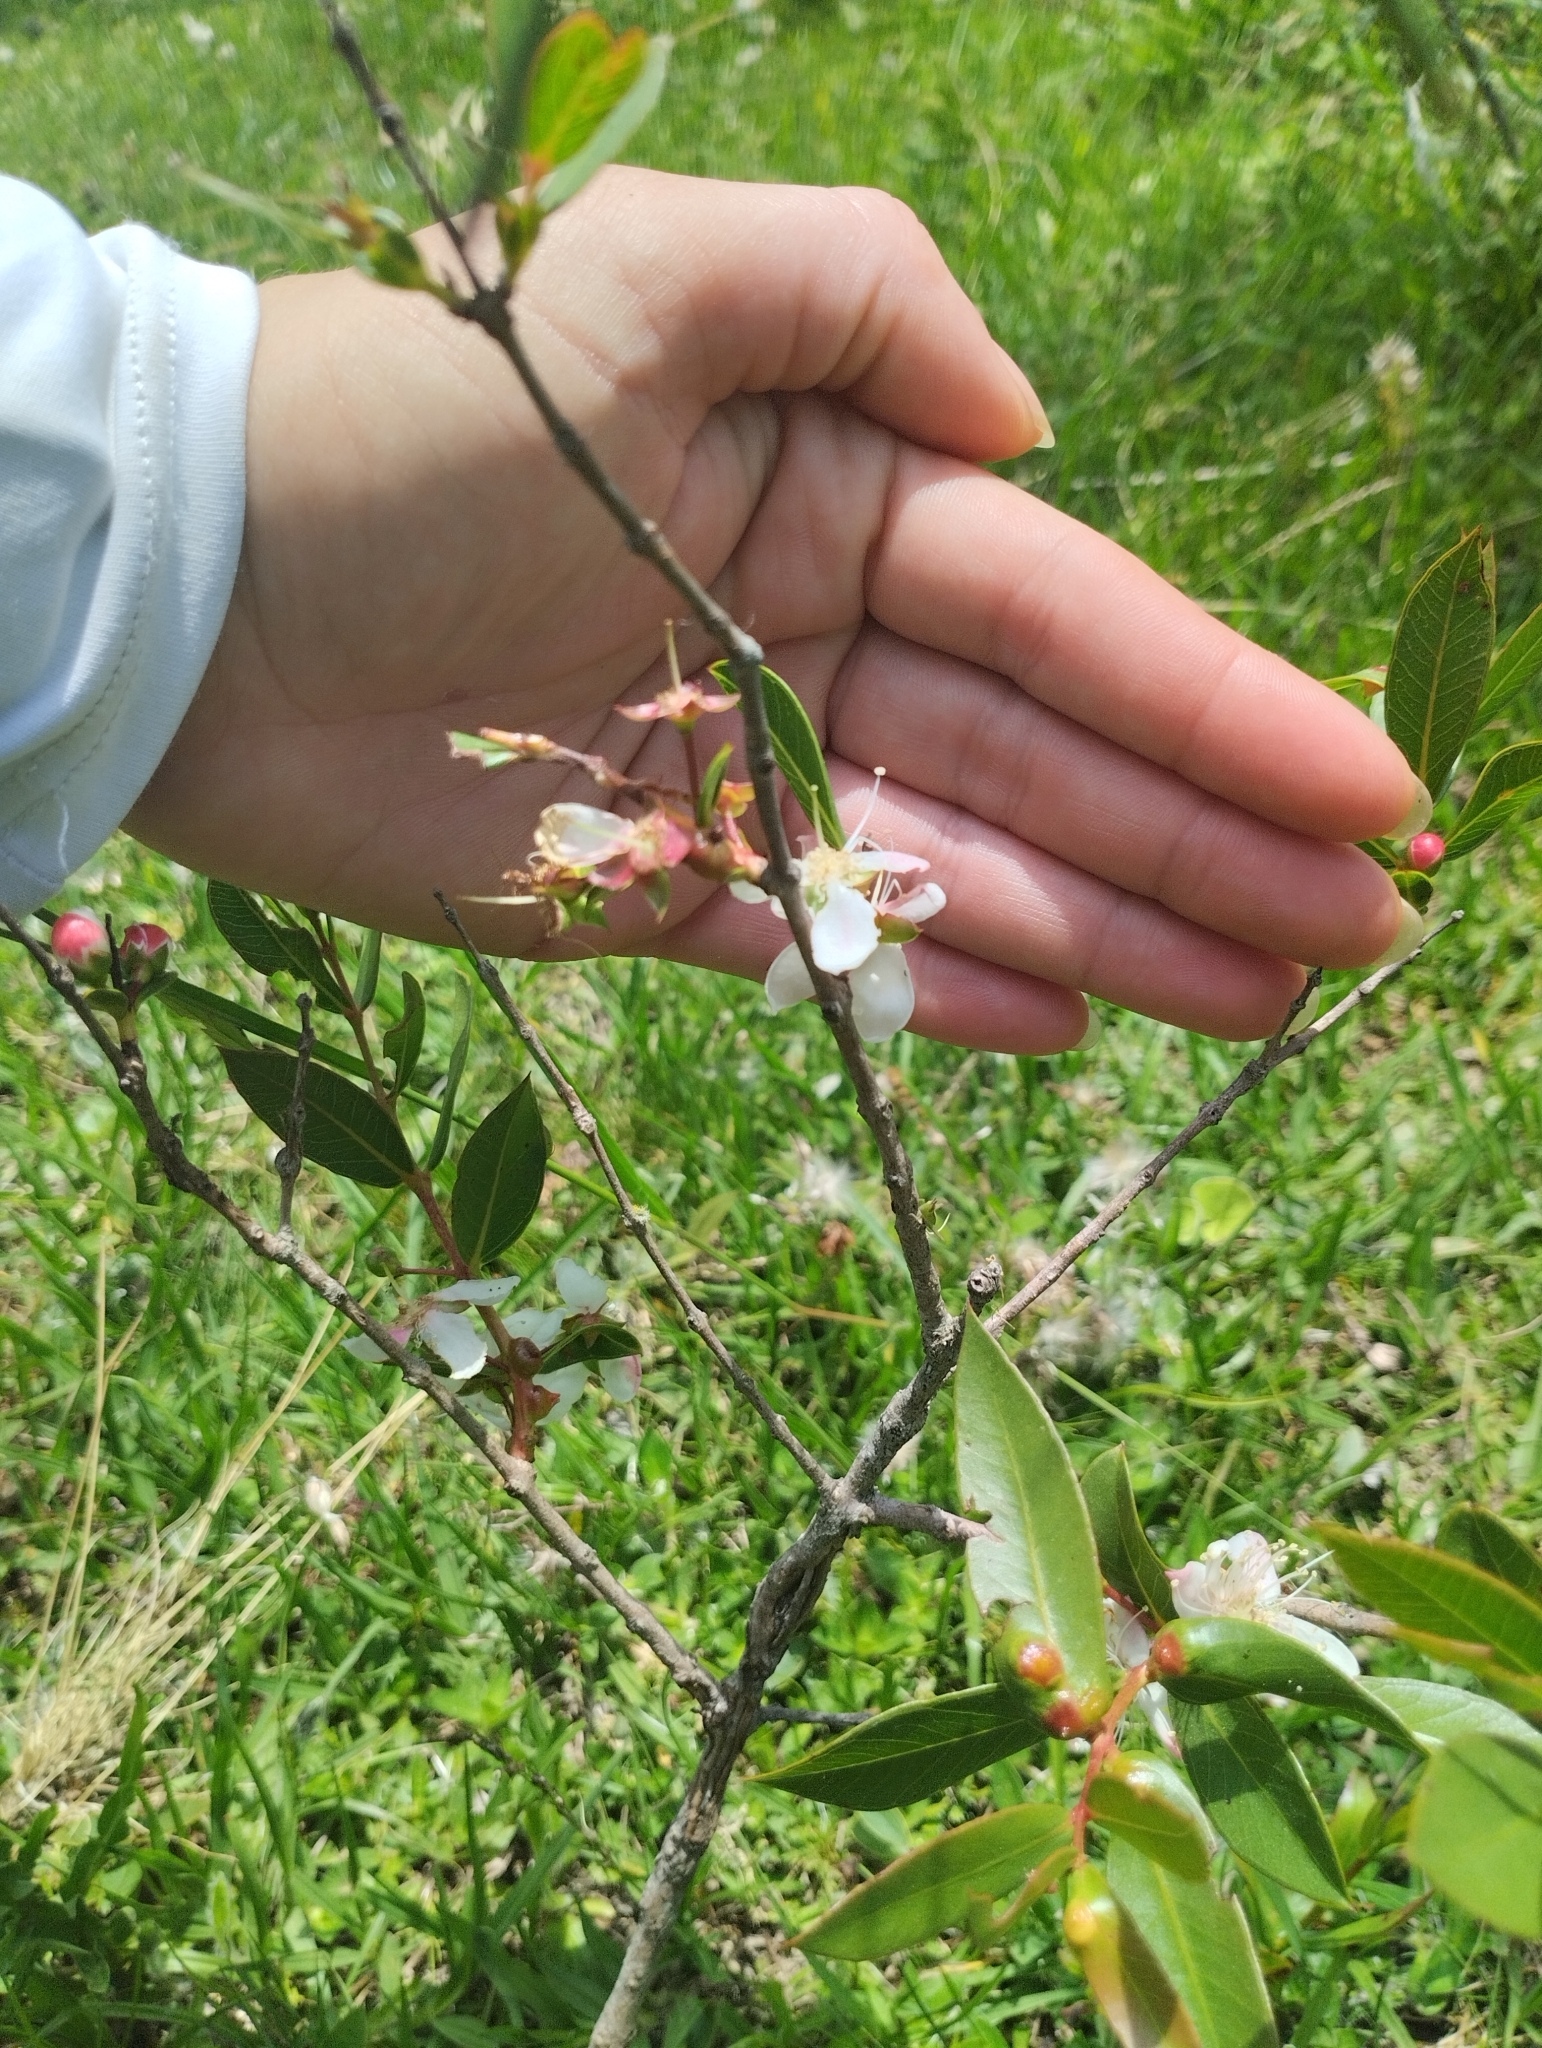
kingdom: Plantae
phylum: Tracheophyta
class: Magnoliopsida
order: Myrtales
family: Myrtaceae
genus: Psidium
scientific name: Psidium salutare
